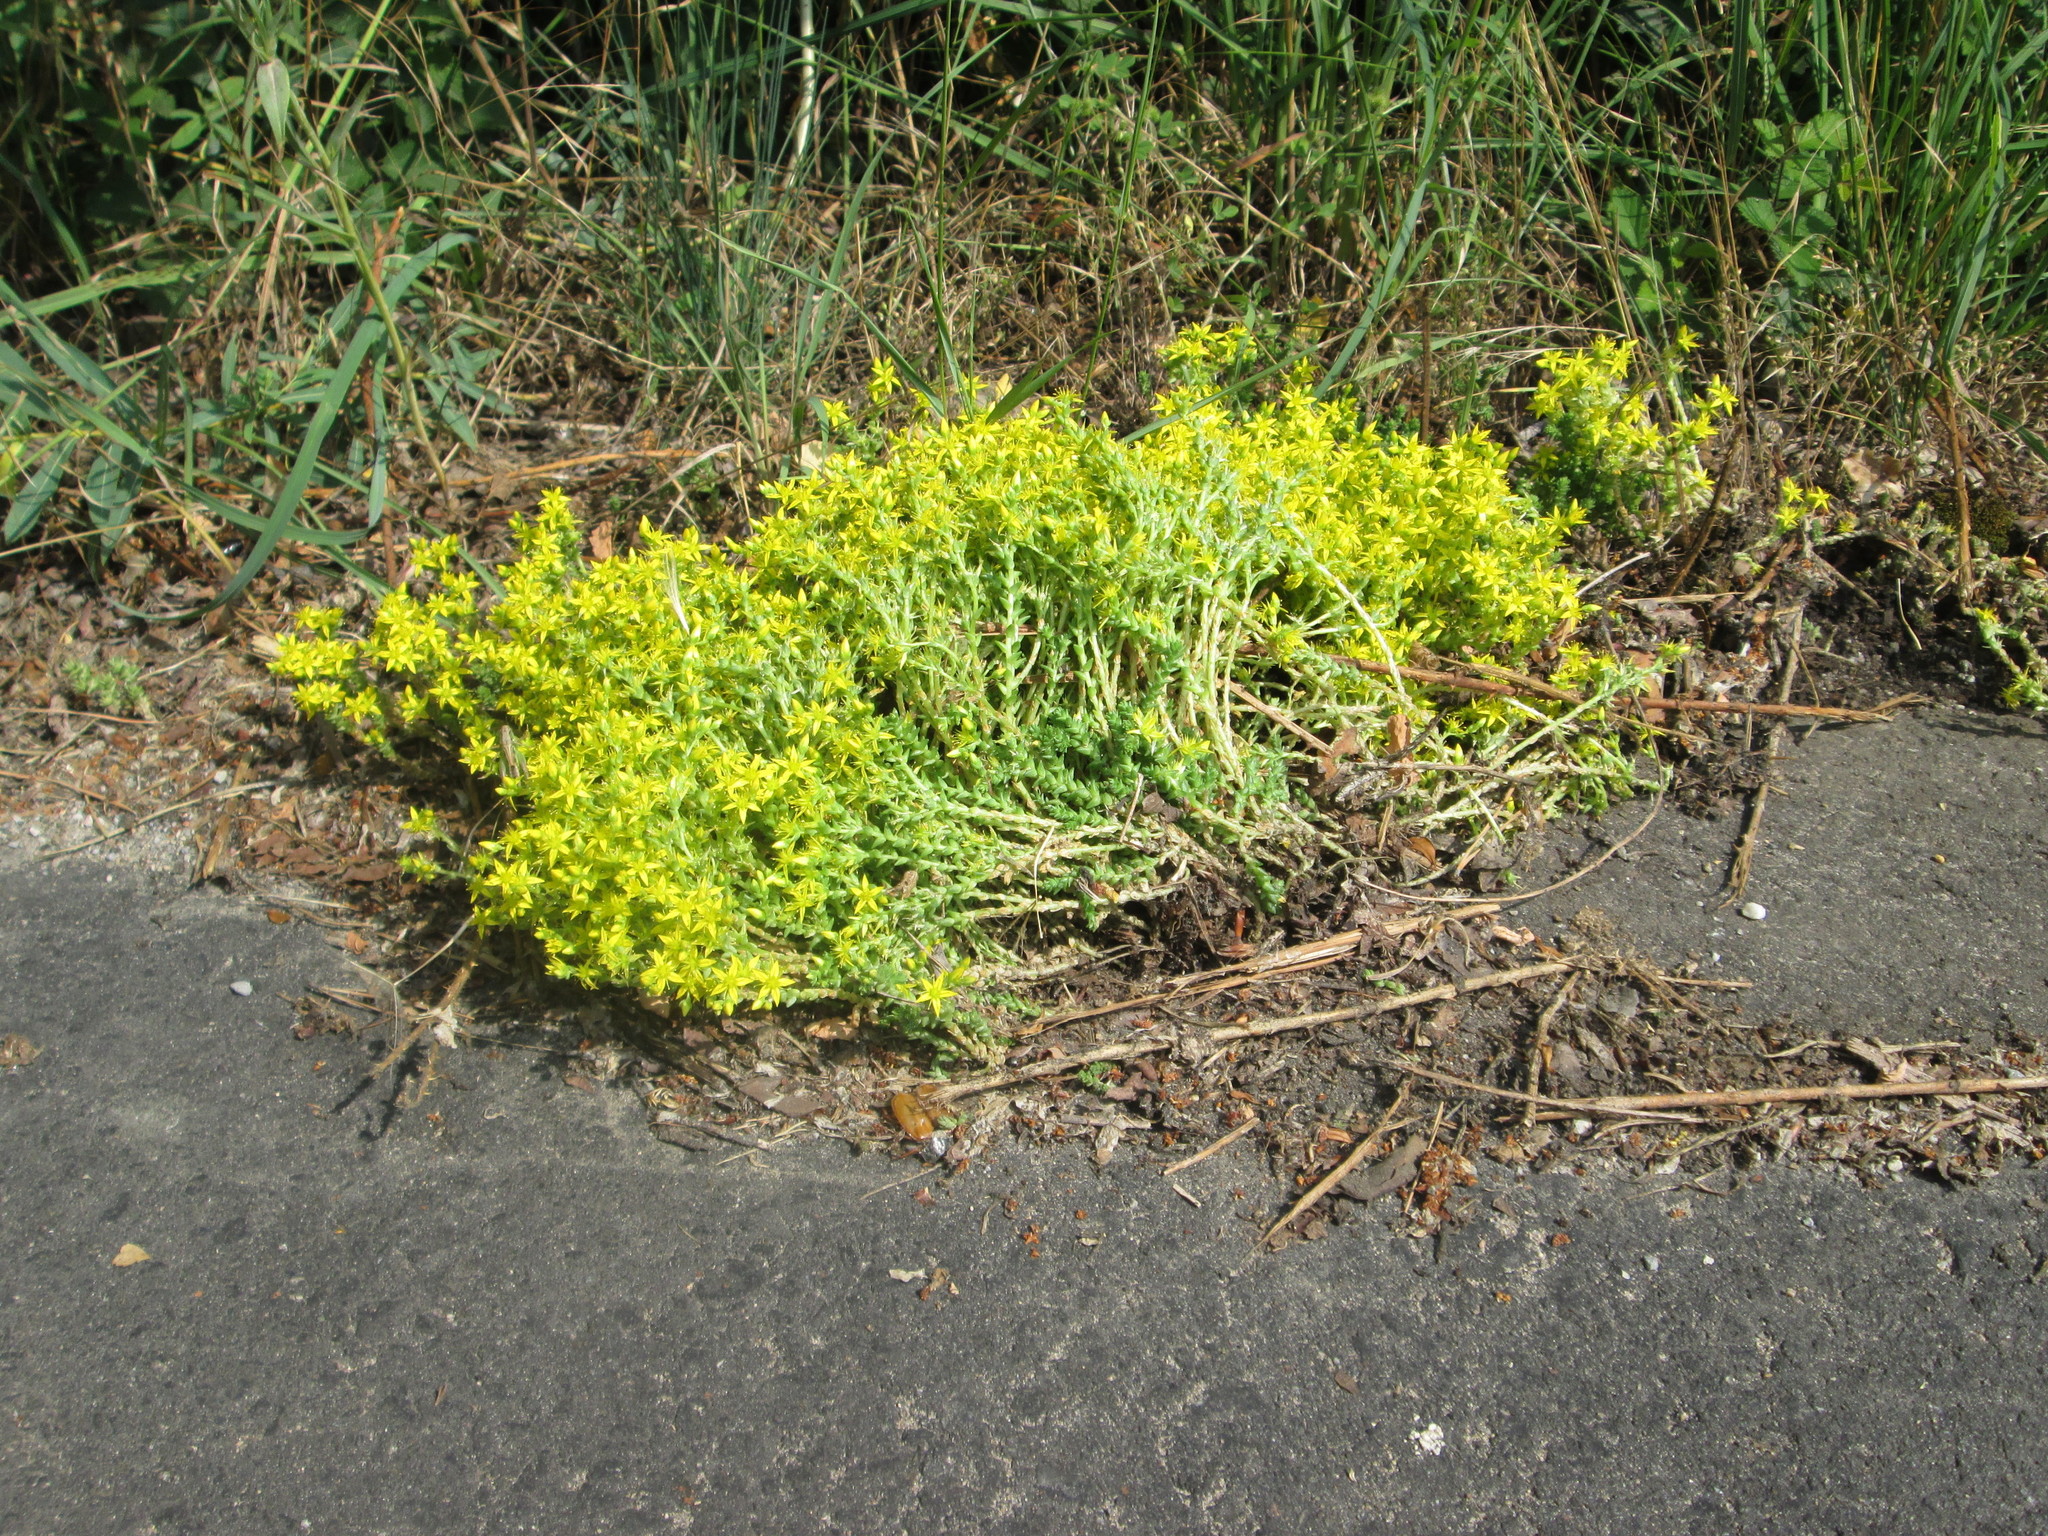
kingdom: Plantae
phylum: Tracheophyta
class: Magnoliopsida
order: Saxifragales
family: Crassulaceae
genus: Sedum
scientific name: Sedum acre
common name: Biting stonecrop
